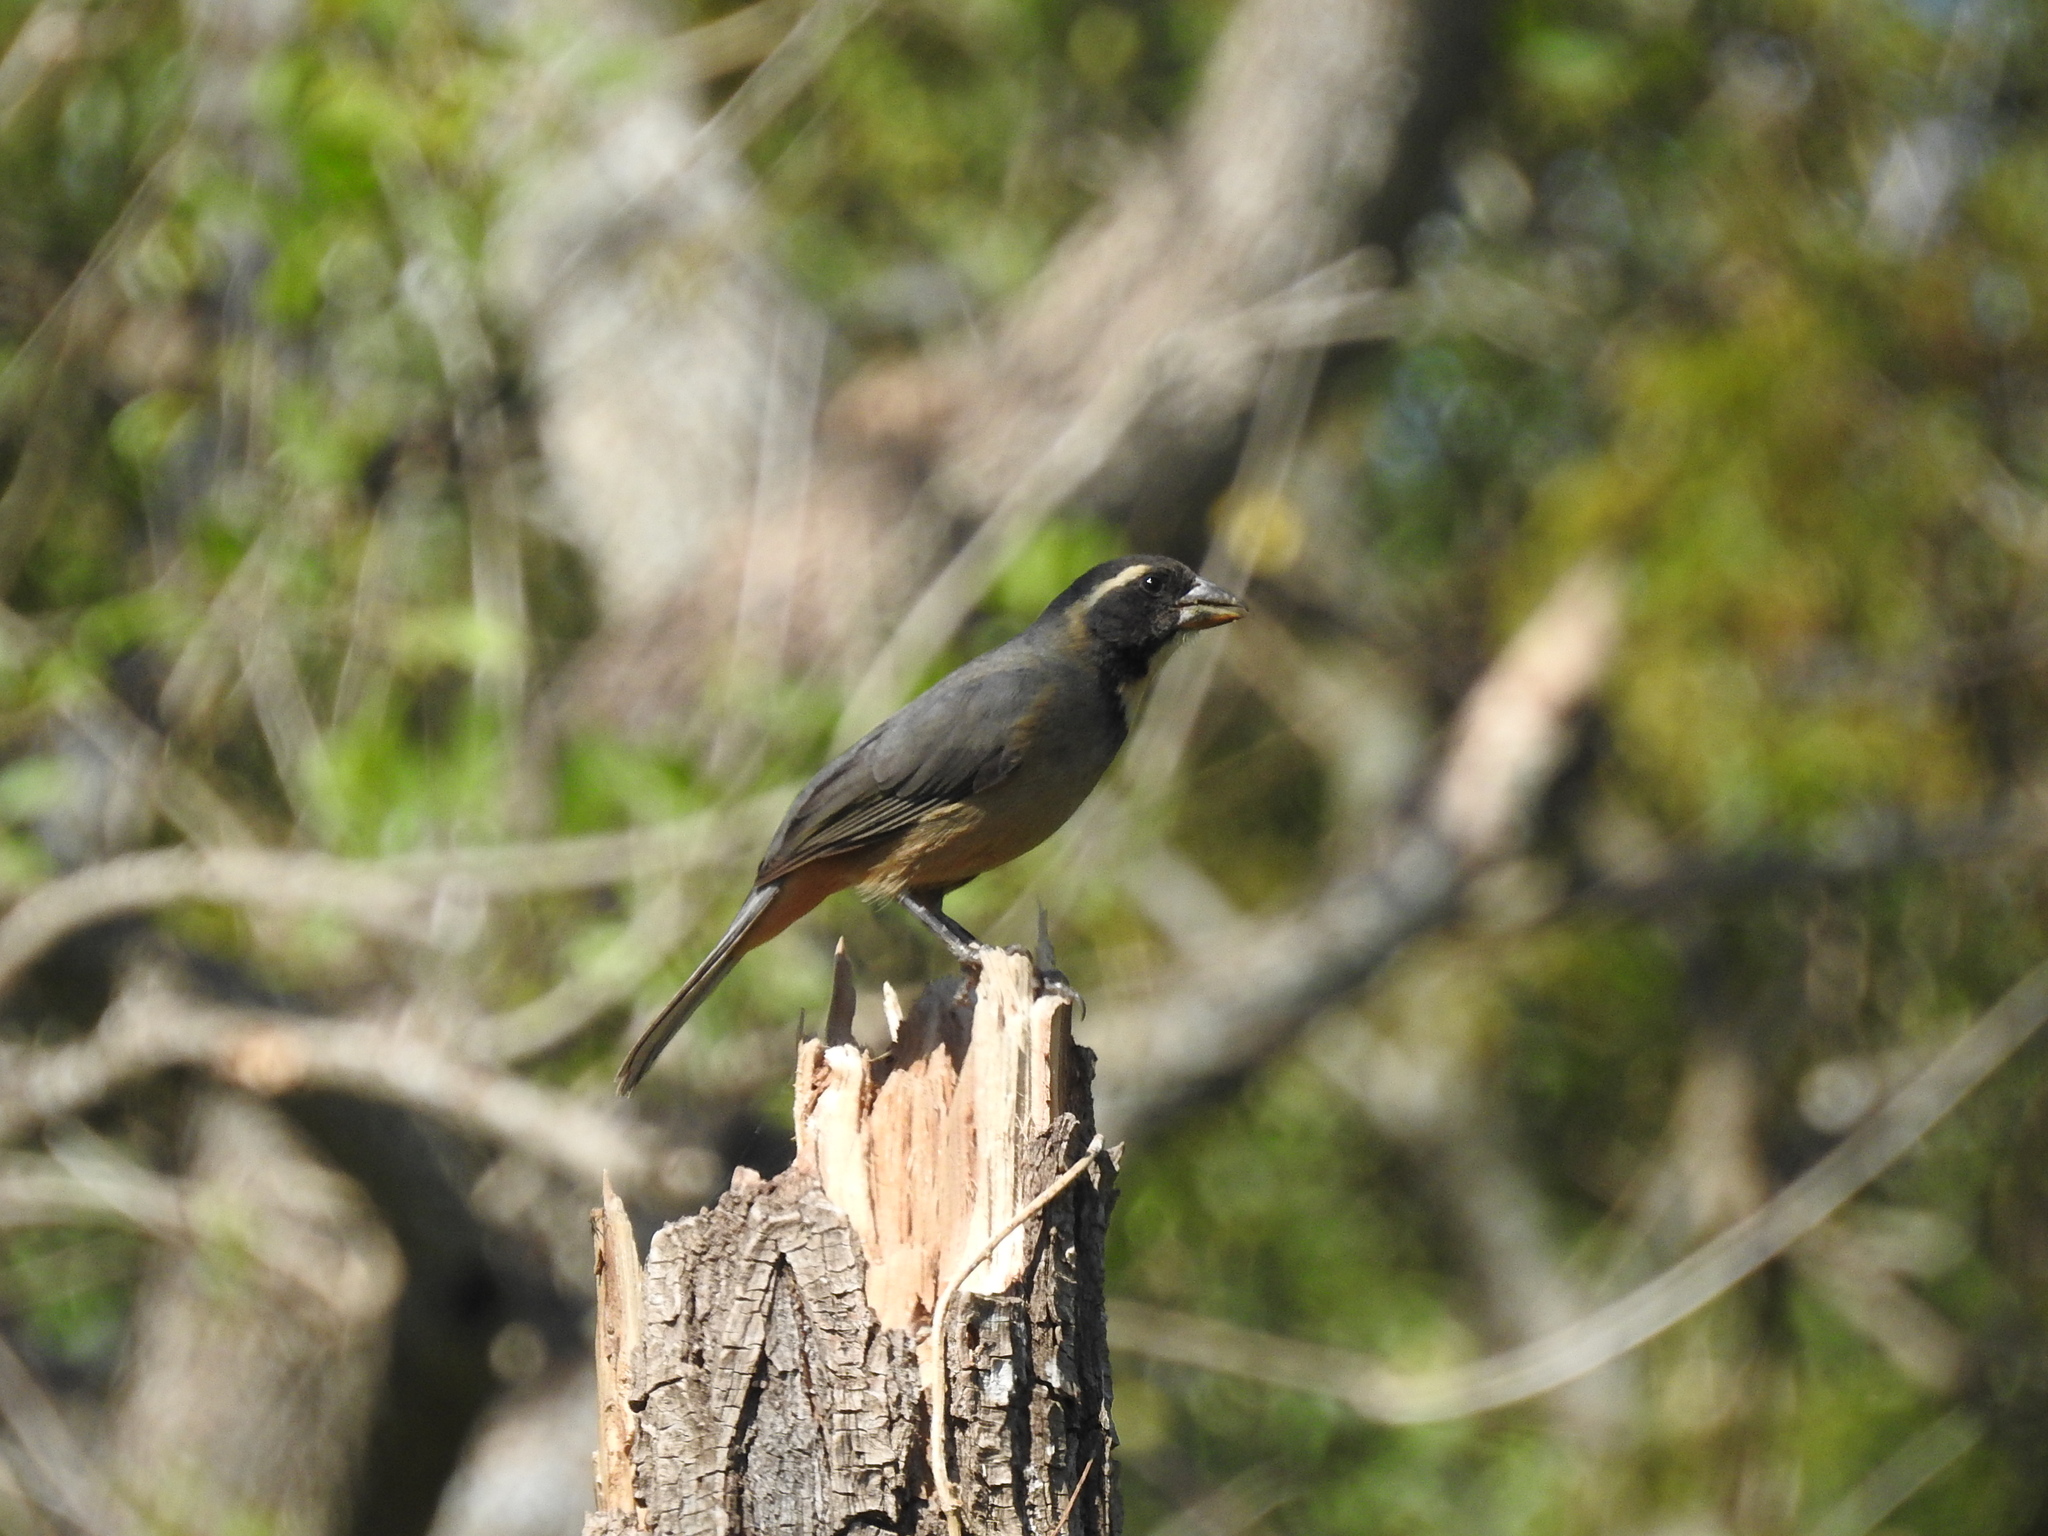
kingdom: Animalia
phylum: Chordata
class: Aves
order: Passeriformes
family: Thraupidae
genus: Saltator
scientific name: Saltator aurantiirostris
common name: Golden-billed saltator
